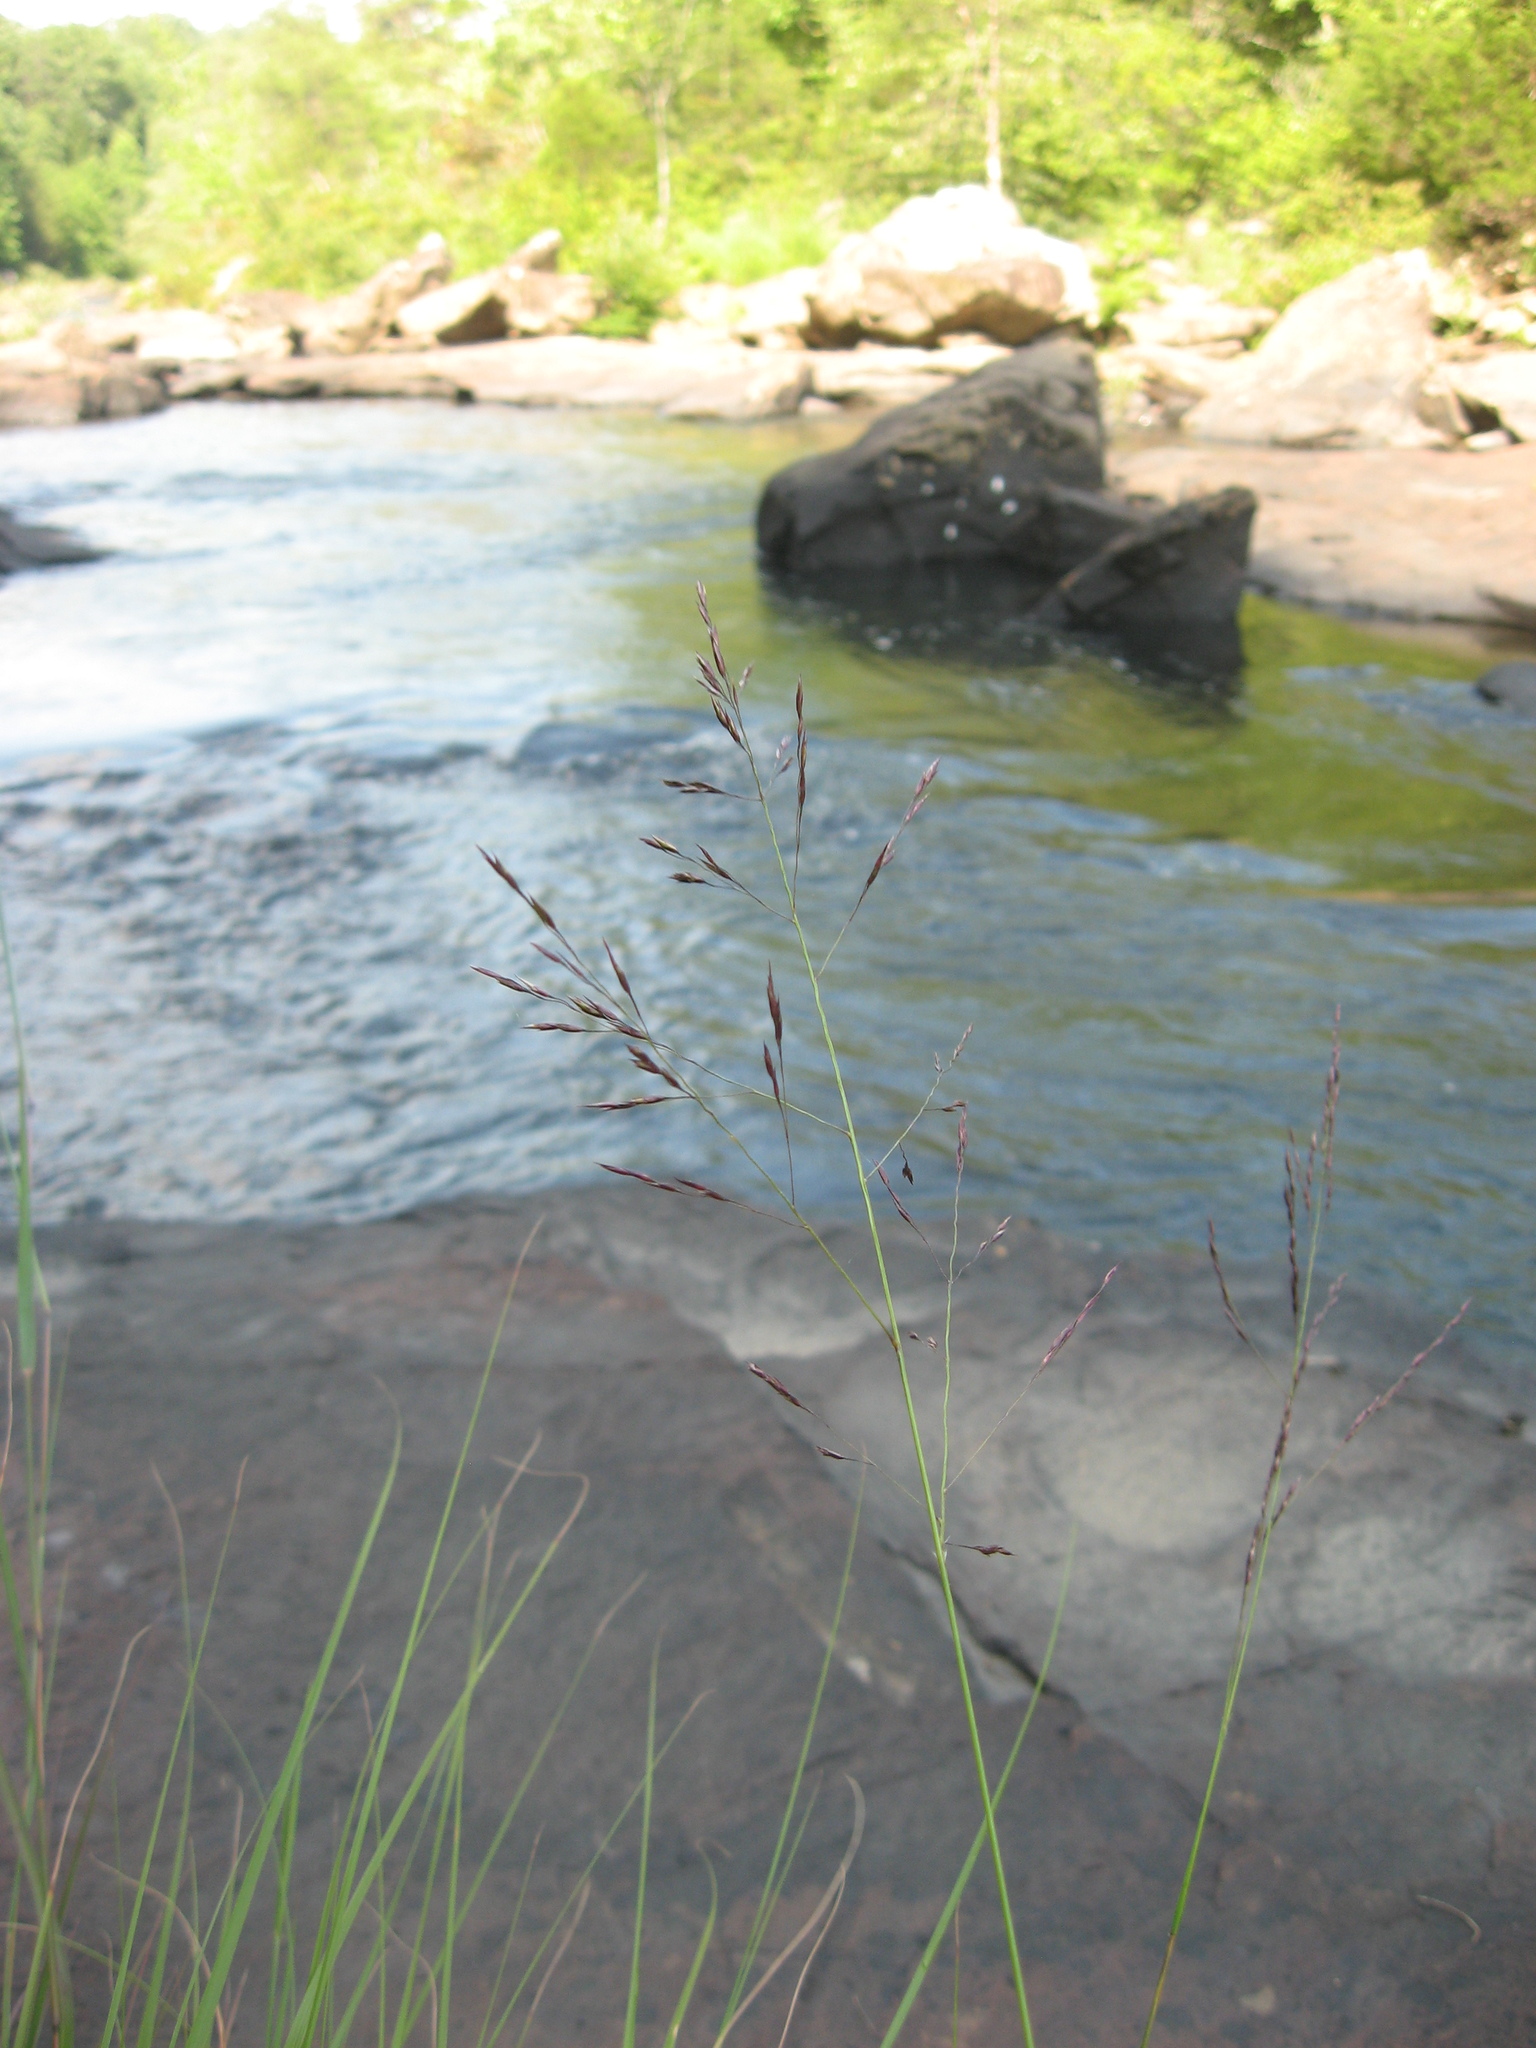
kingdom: Plantae
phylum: Tracheophyta
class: Liliopsida
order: Poales
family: Poaceae
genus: Sporobolus
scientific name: Sporobolus arcuatus
